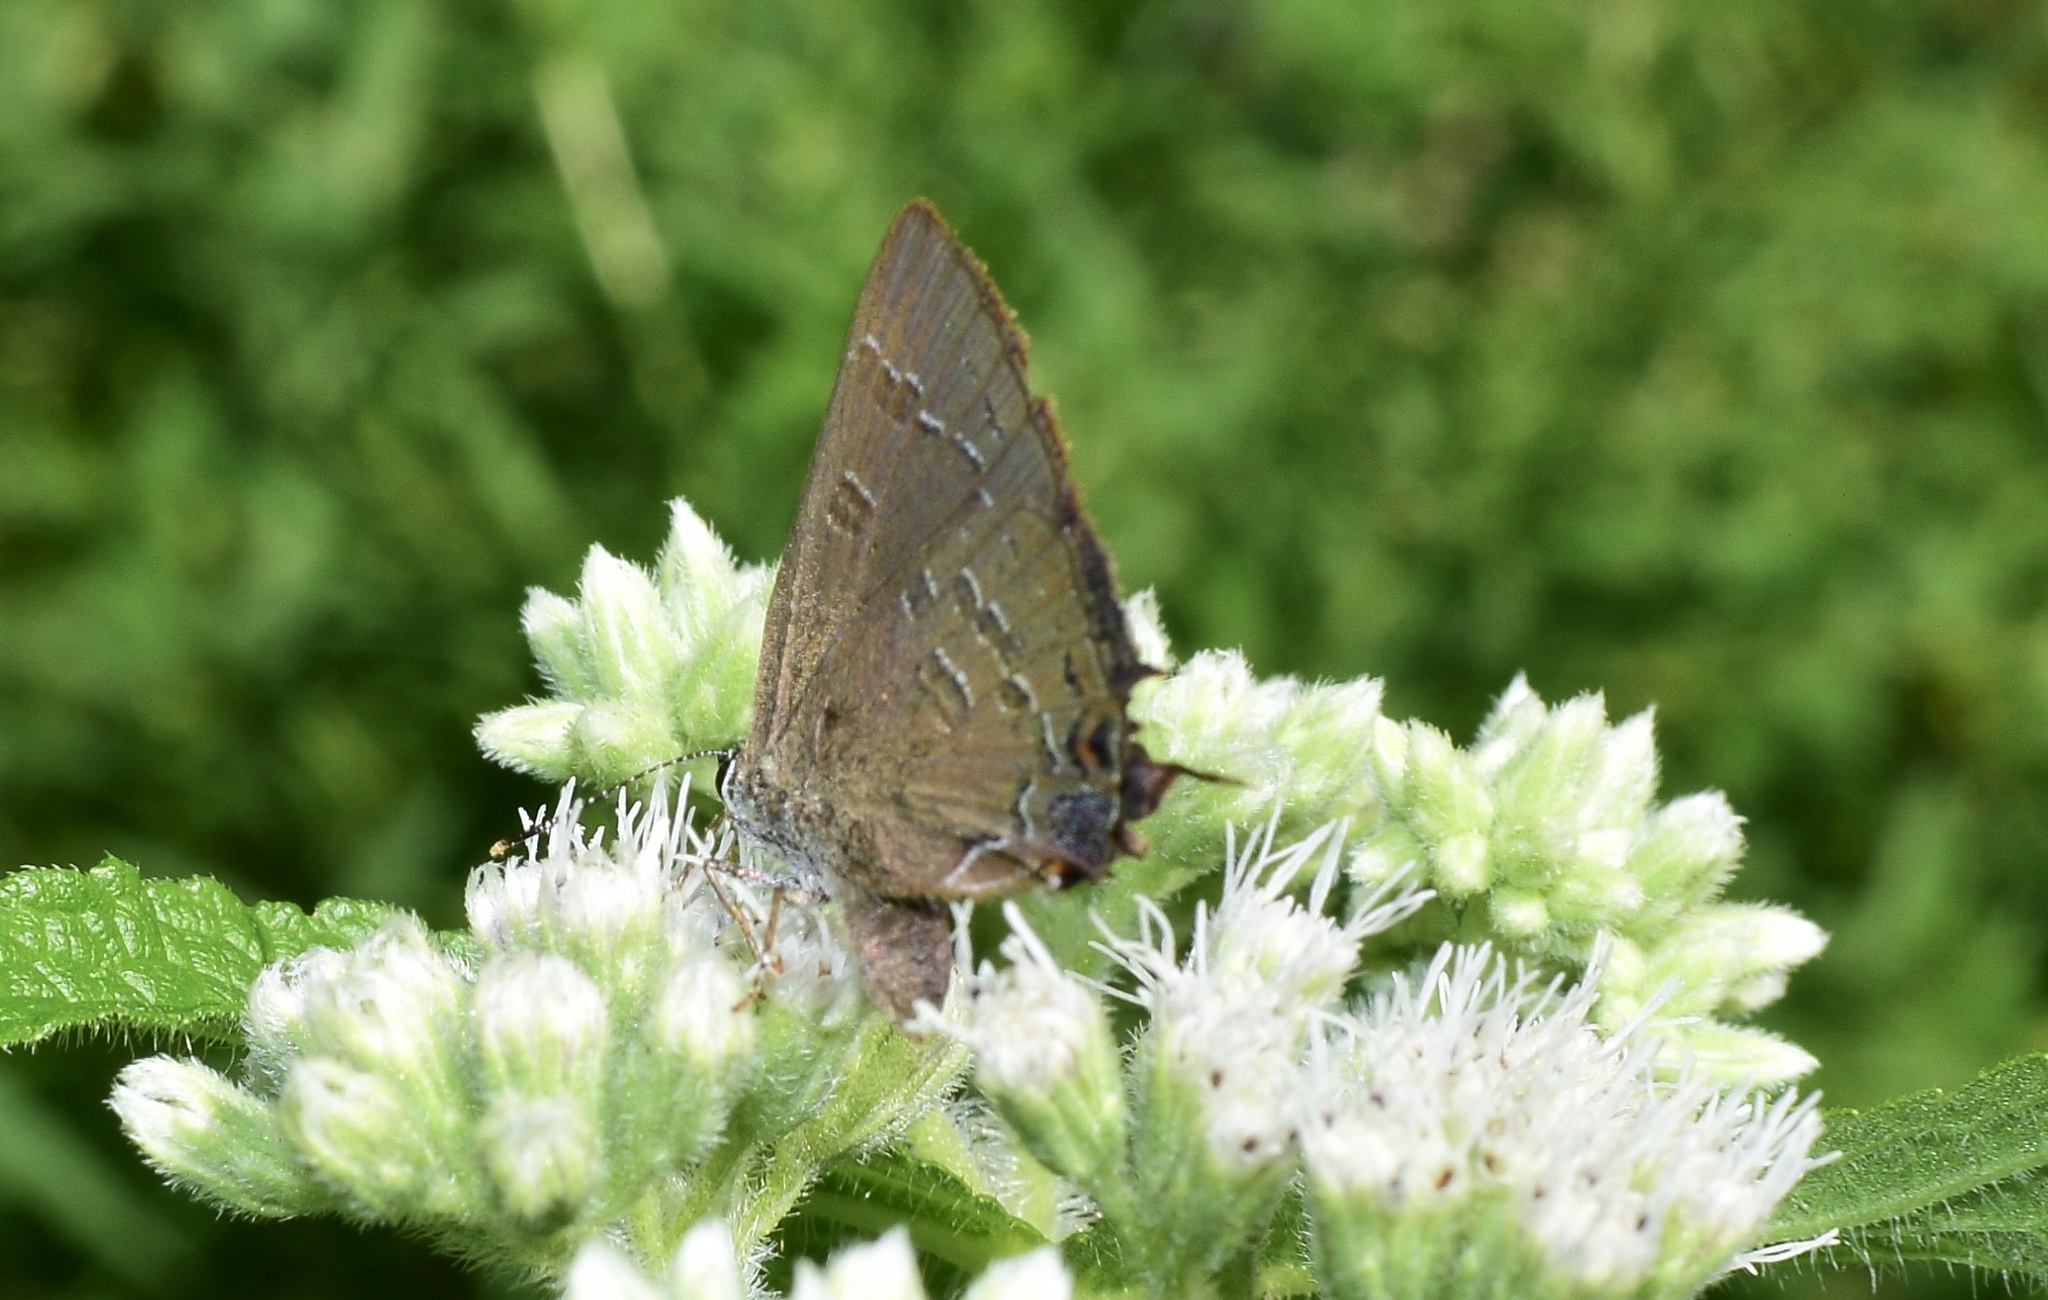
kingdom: Animalia
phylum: Arthropoda
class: Insecta
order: Lepidoptera
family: Lycaenidae
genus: Satyrium
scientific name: Satyrium calanus
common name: Banded hairstreak
